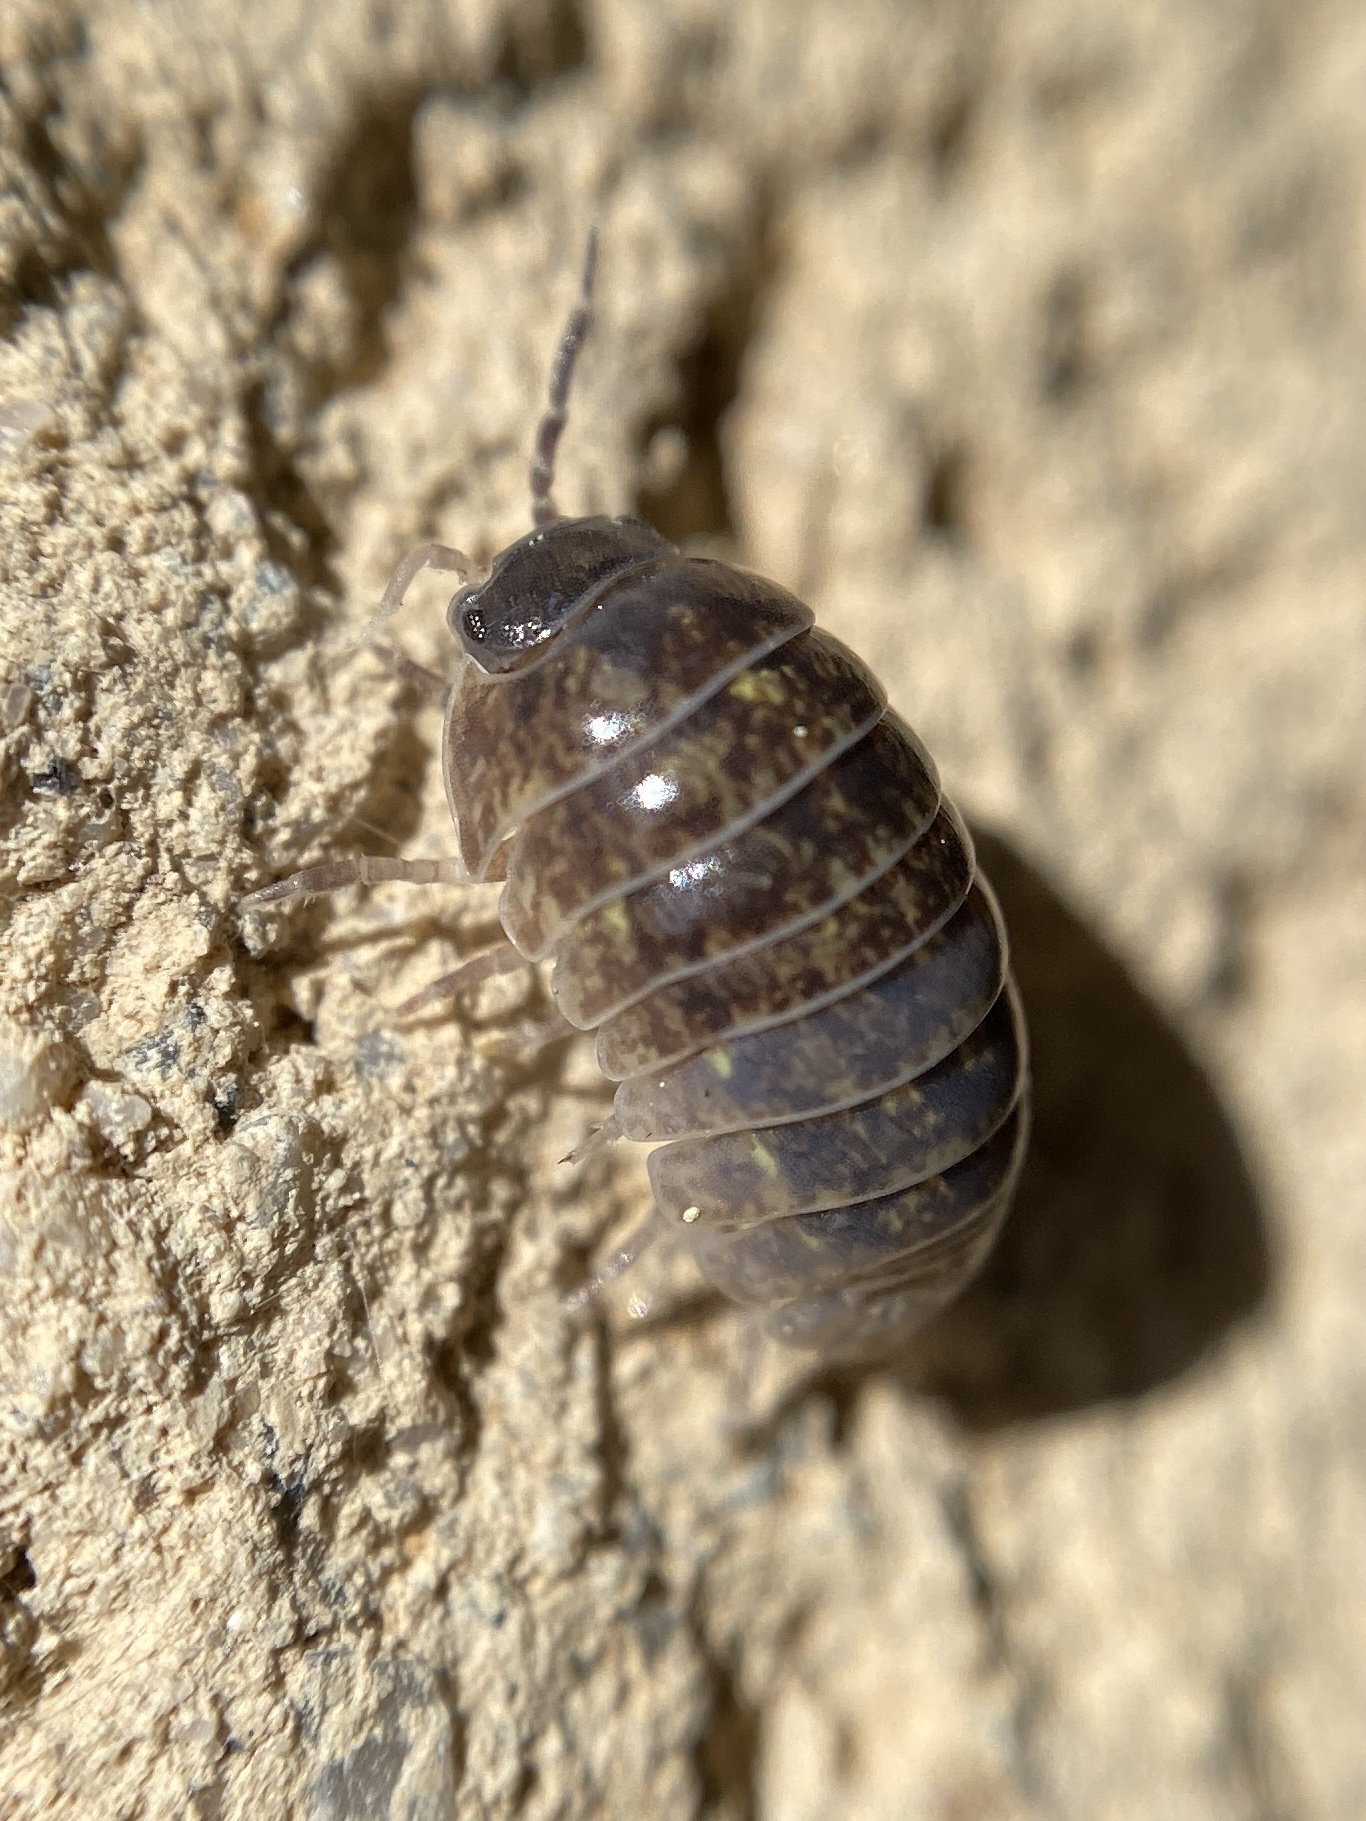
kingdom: Animalia
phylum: Arthropoda
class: Malacostraca
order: Isopoda
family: Armadillidiidae
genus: Armadillidium
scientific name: Armadillidium vulgare
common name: Common pill woodlouse
